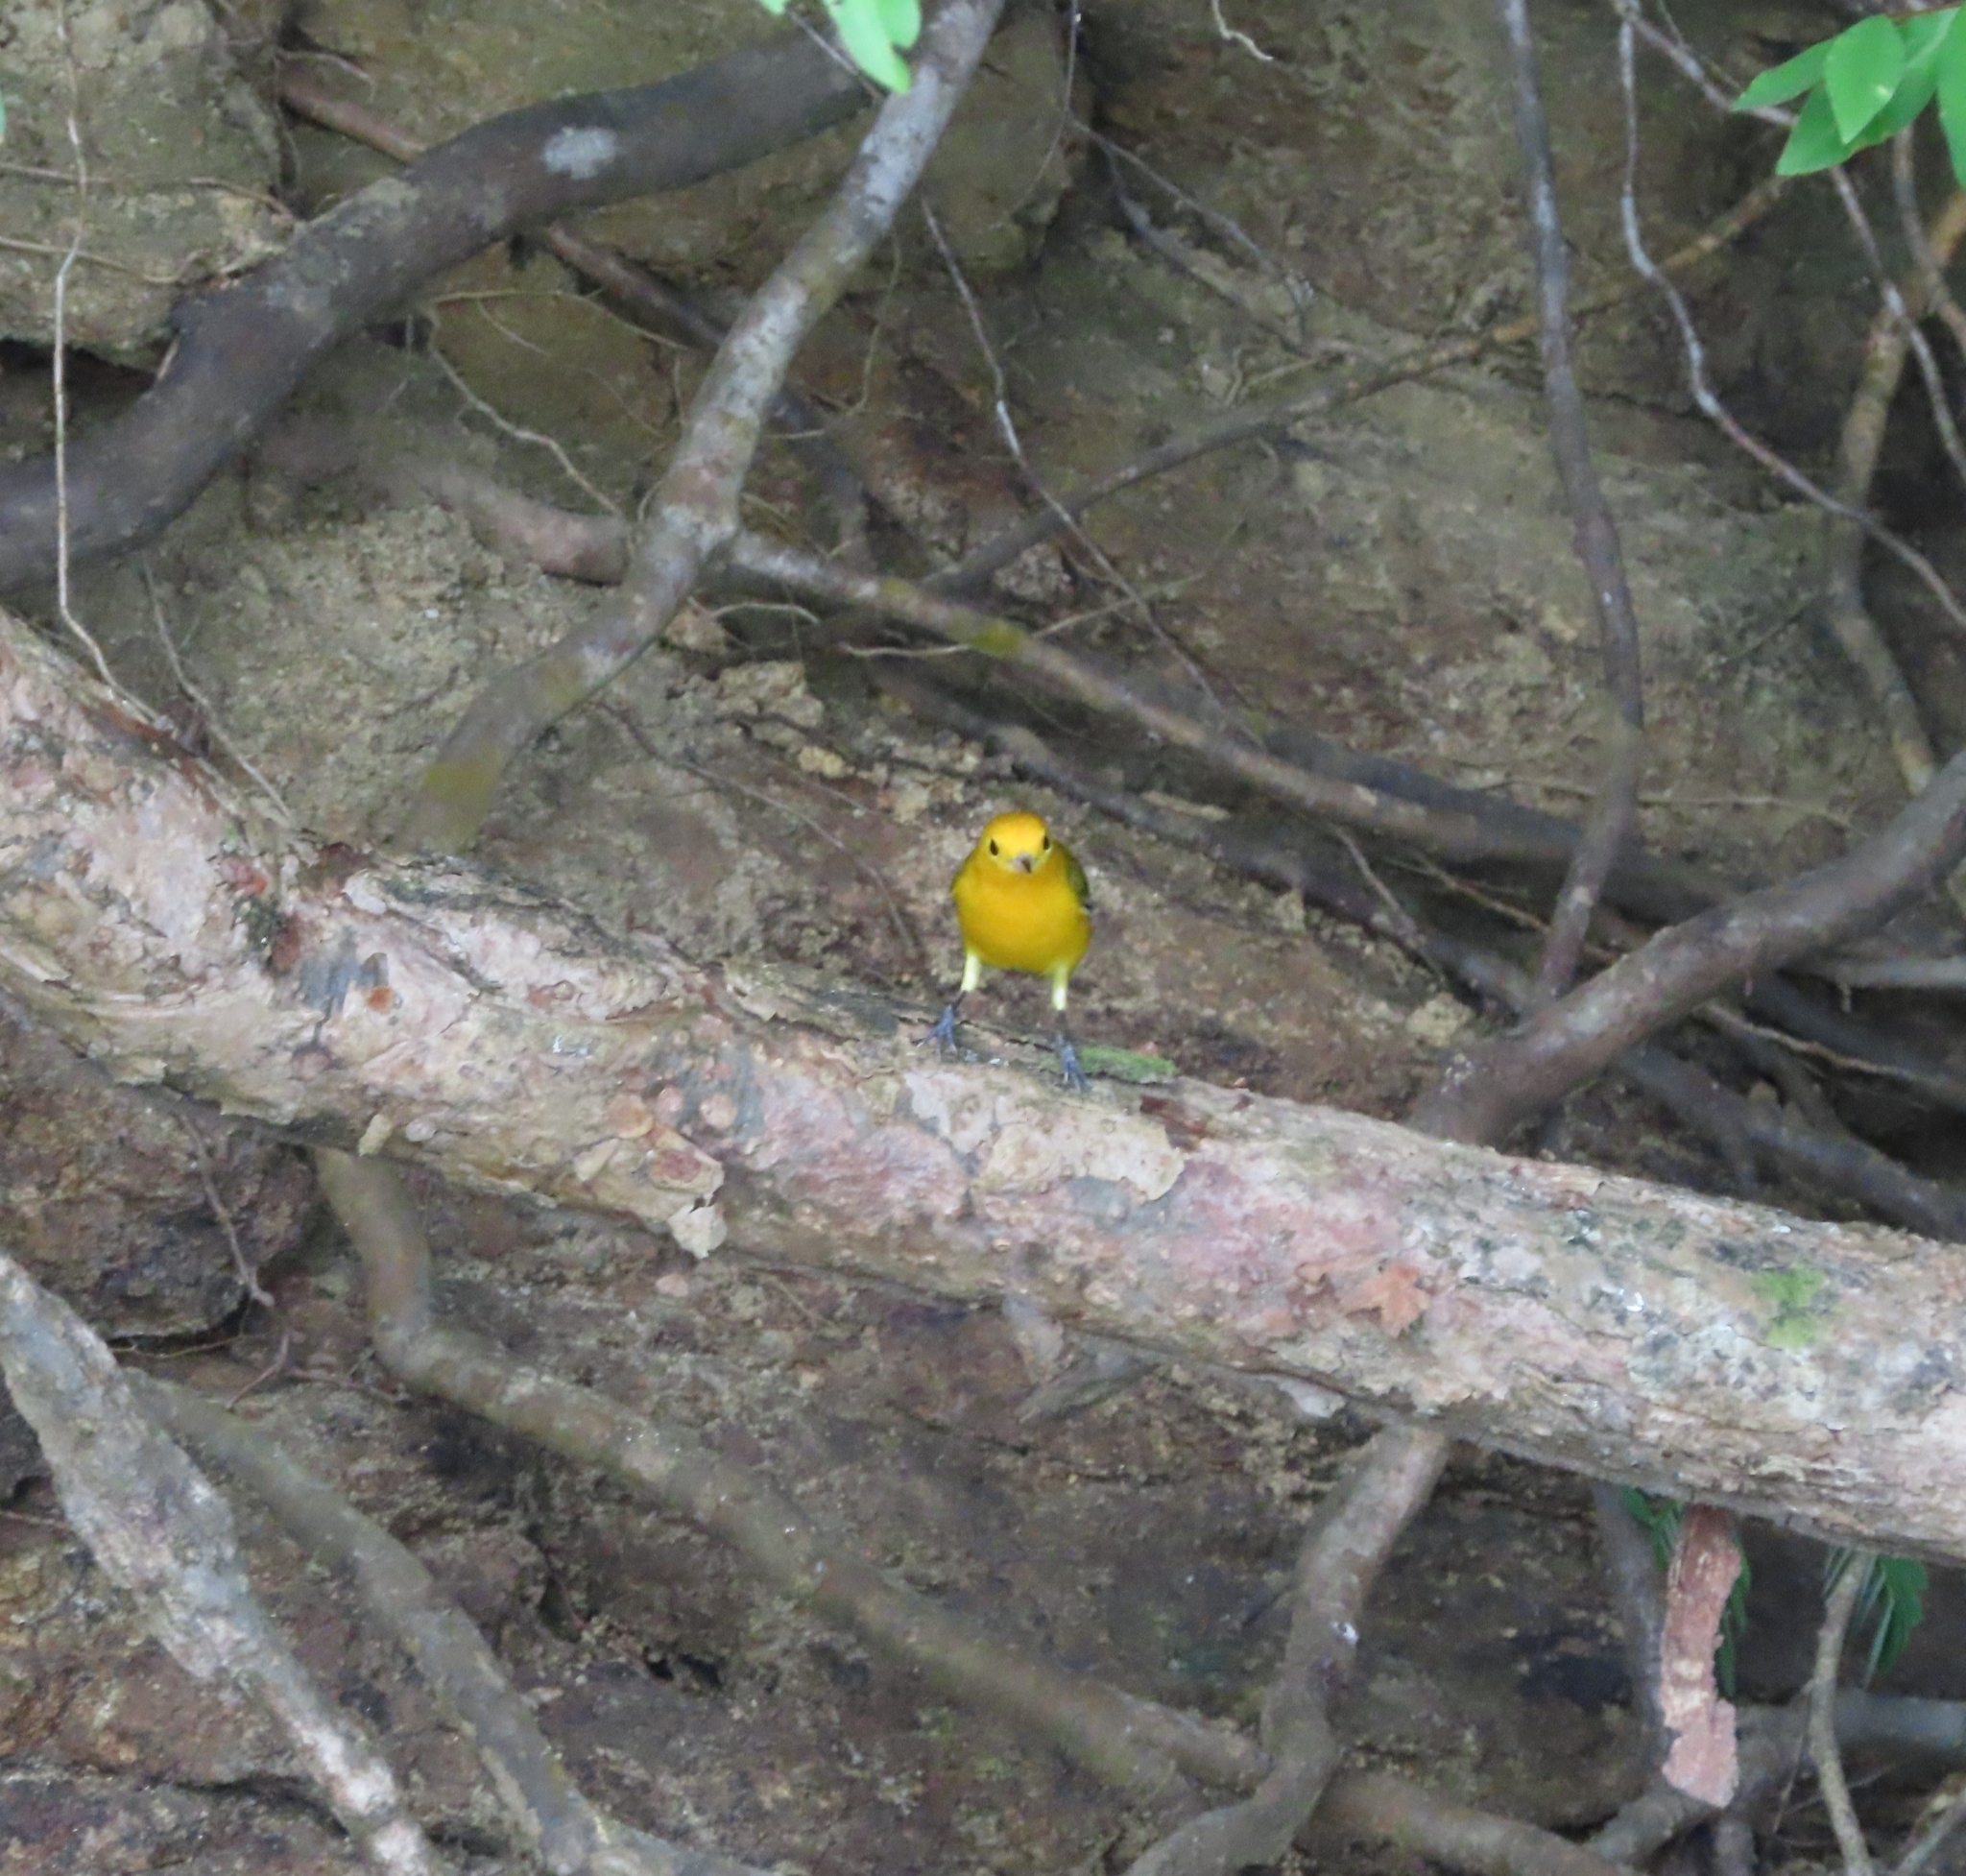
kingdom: Animalia
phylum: Chordata
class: Aves
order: Passeriformes
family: Parulidae
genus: Protonotaria
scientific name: Protonotaria citrea
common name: Prothonotary warbler
